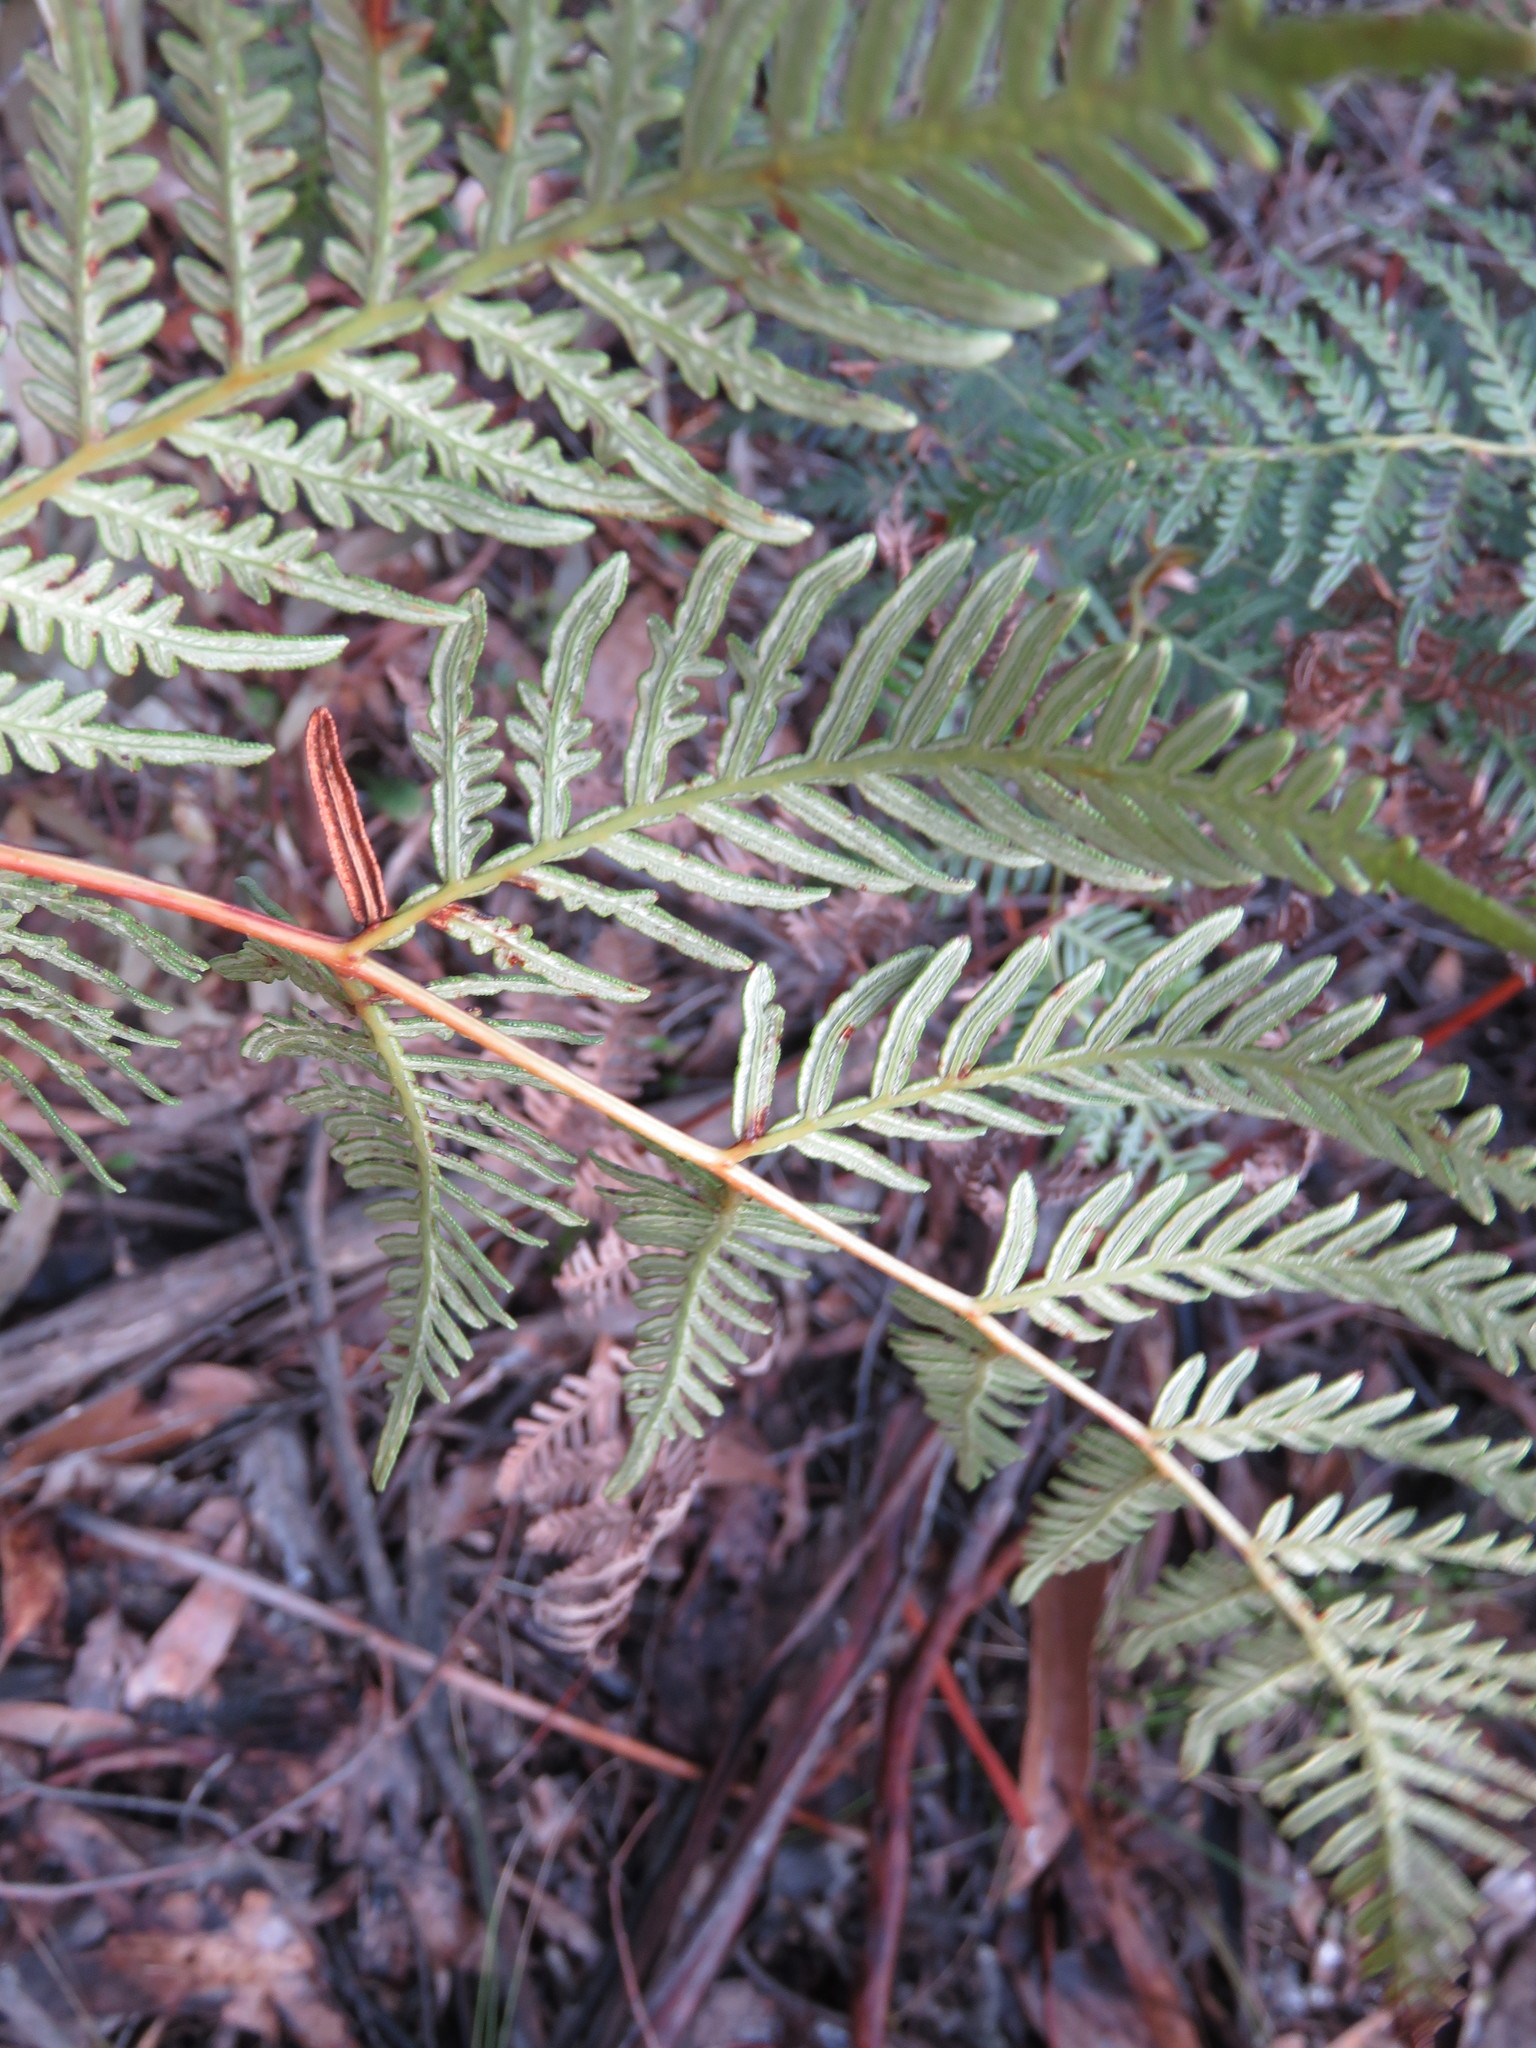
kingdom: Plantae
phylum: Tracheophyta
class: Polypodiopsida
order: Polypodiales
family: Dennstaedtiaceae
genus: Pteridium
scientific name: Pteridium esculentum
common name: Bracken fern
